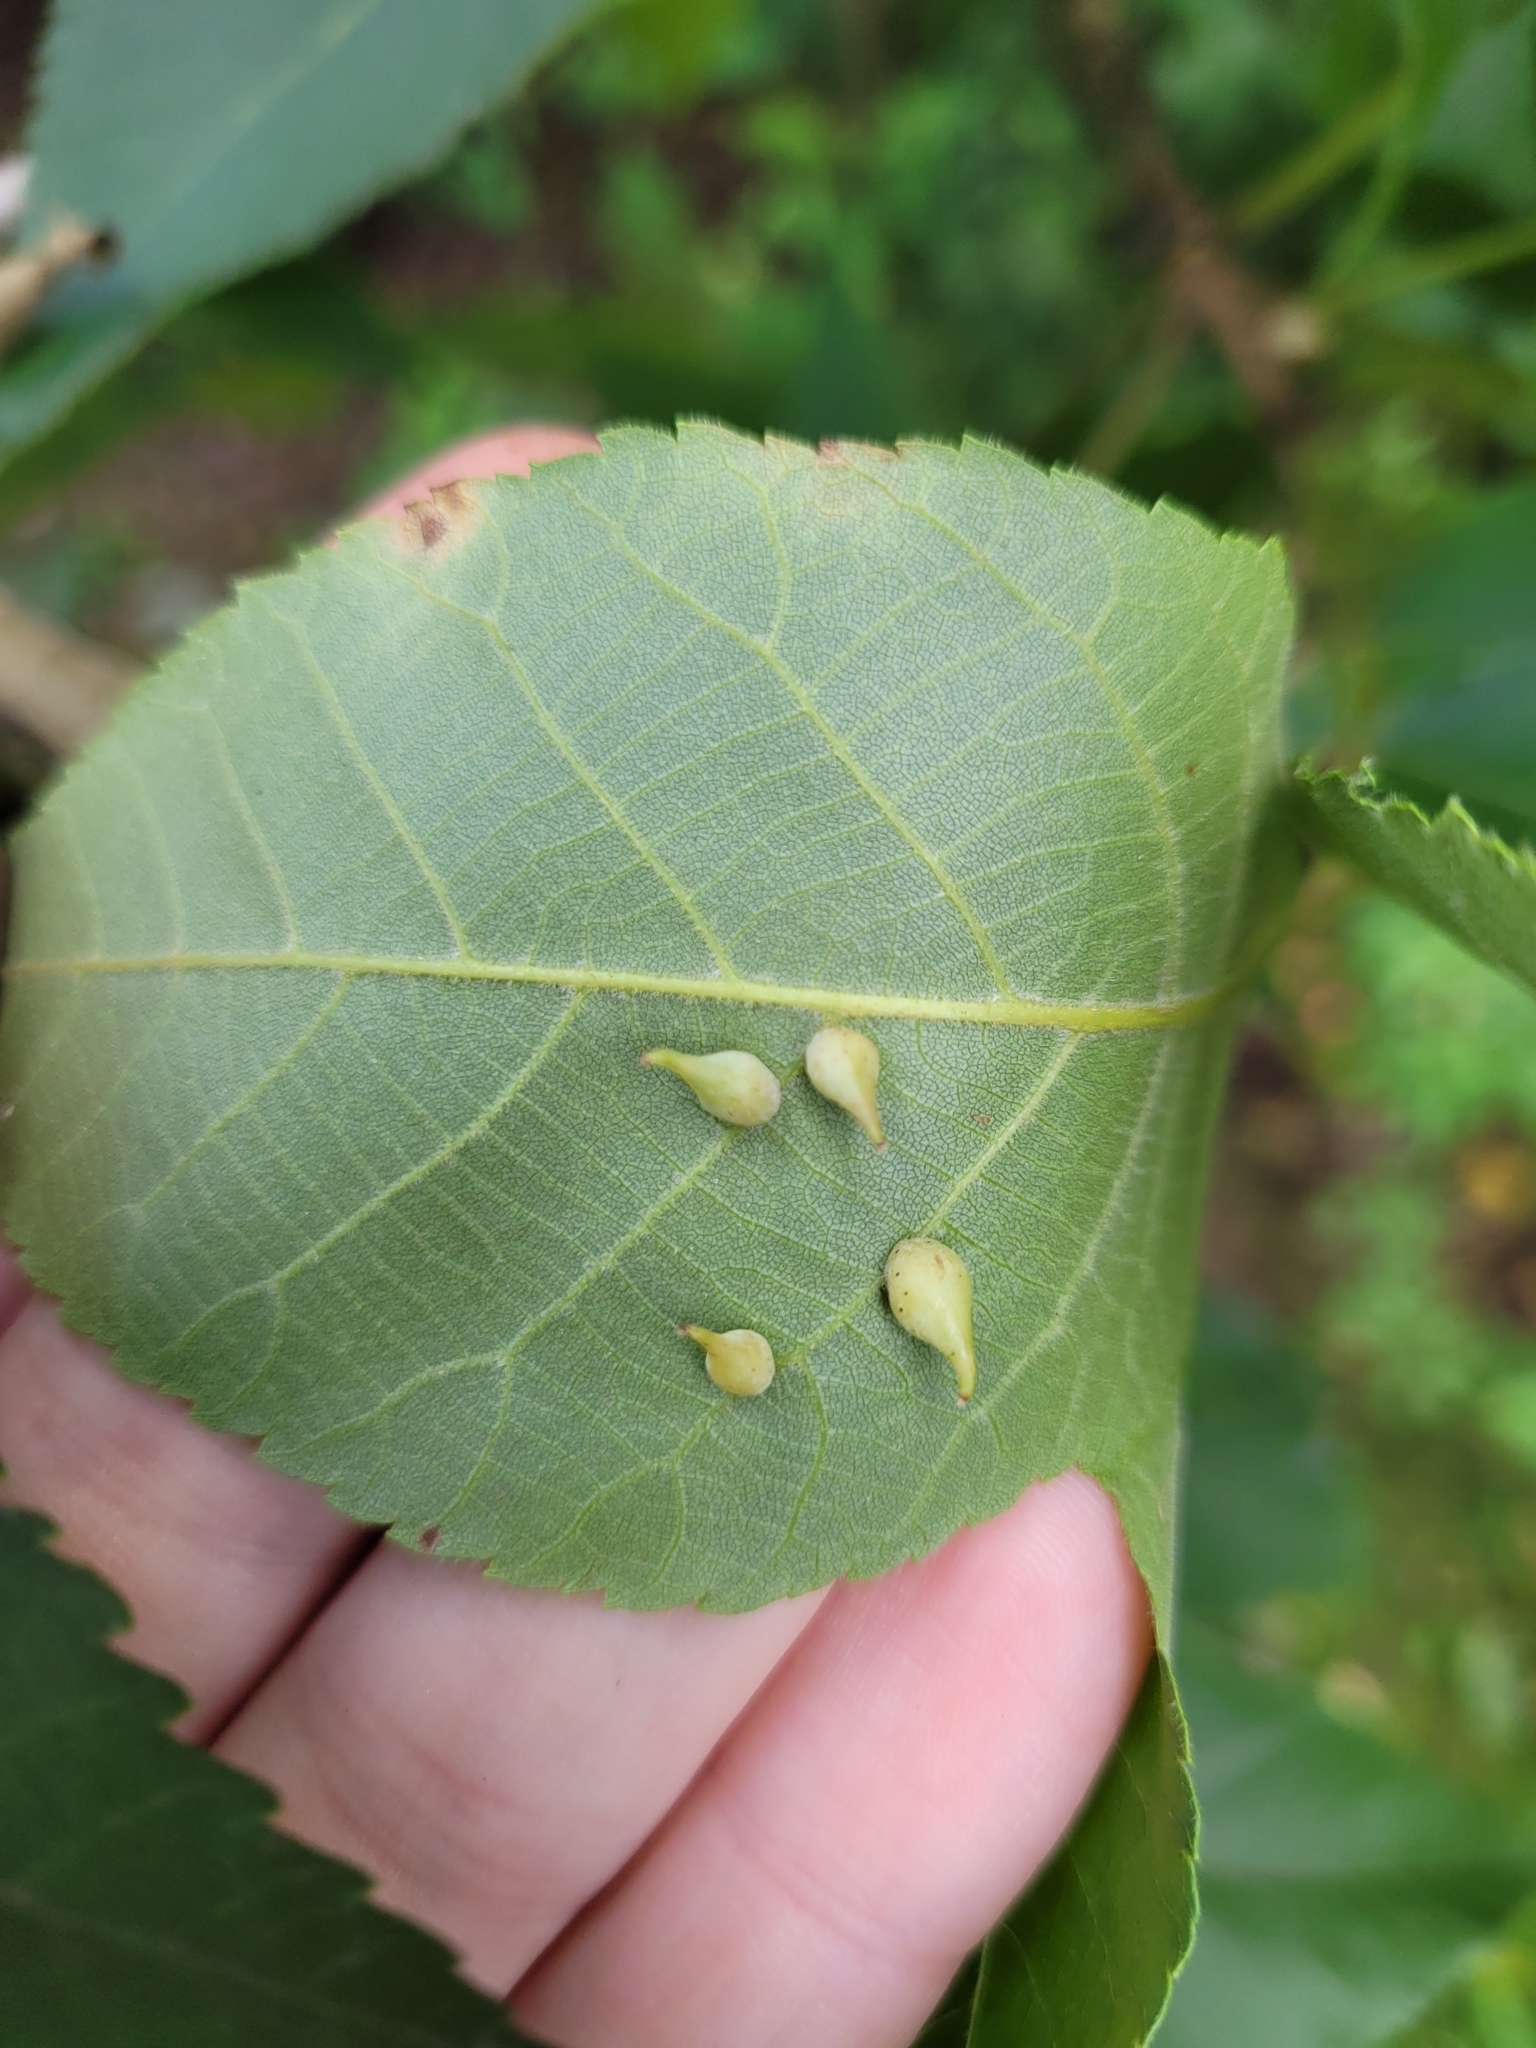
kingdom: Animalia
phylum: Arthropoda
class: Insecta
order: Diptera
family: Cecidomyiidae
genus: Caryomyia
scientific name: Caryomyia caryaecola
